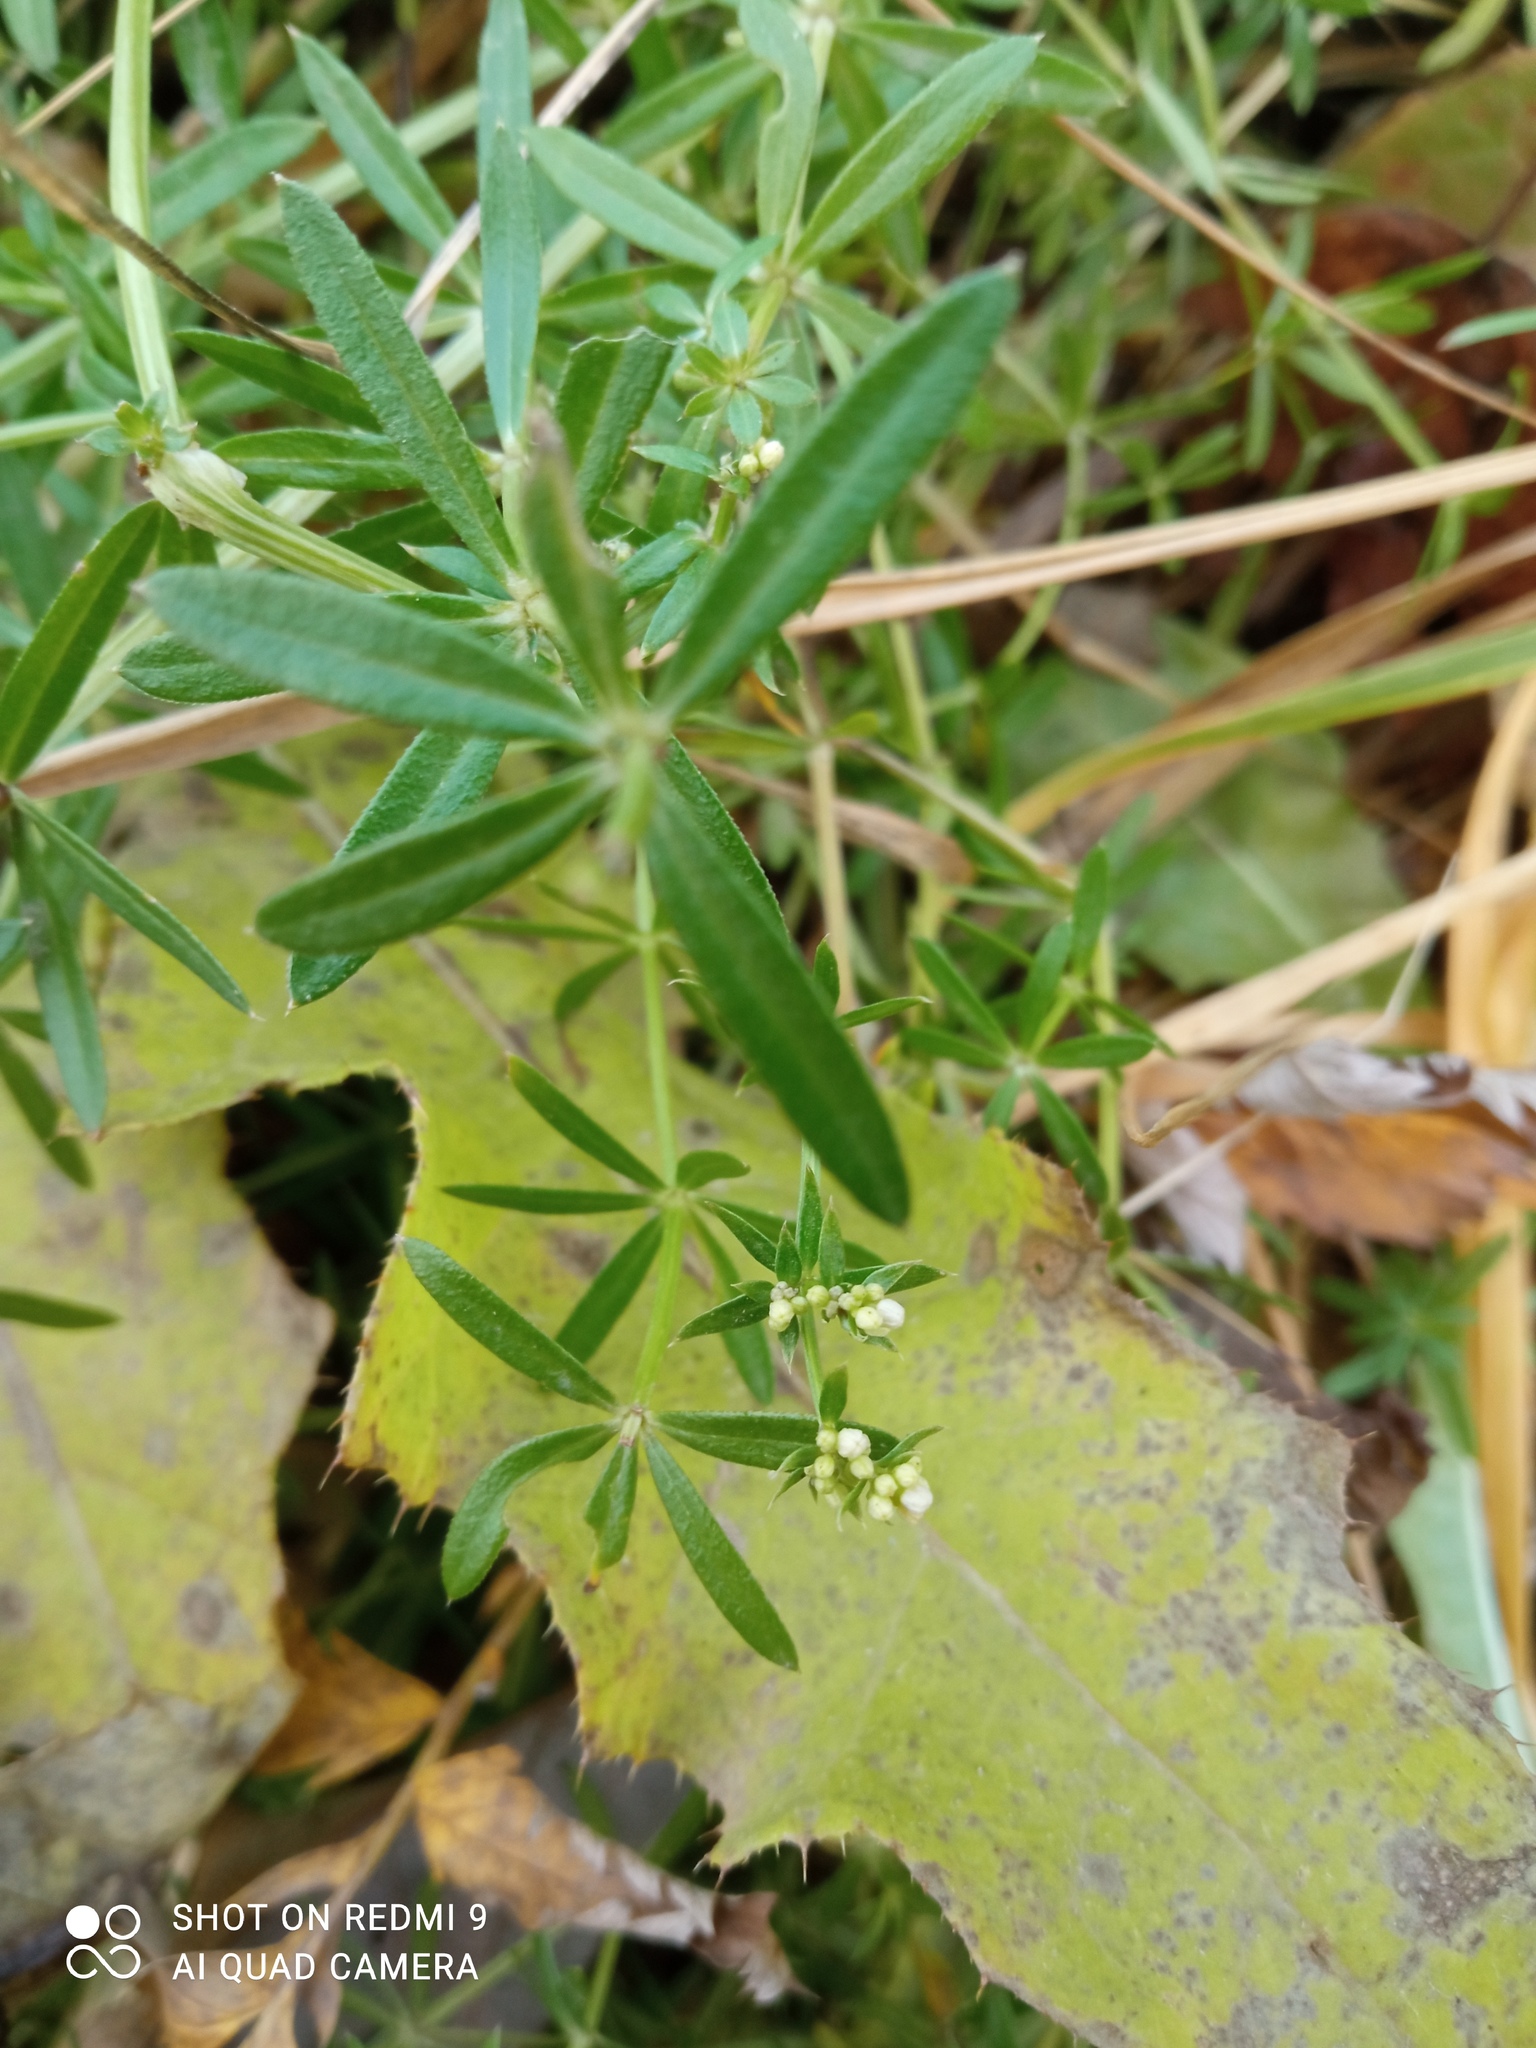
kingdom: Plantae
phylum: Tracheophyta
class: Magnoliopsida
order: Gentianales
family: Rubiaceae
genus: Galium
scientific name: Galium mollugo
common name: Hedge bedstraw
